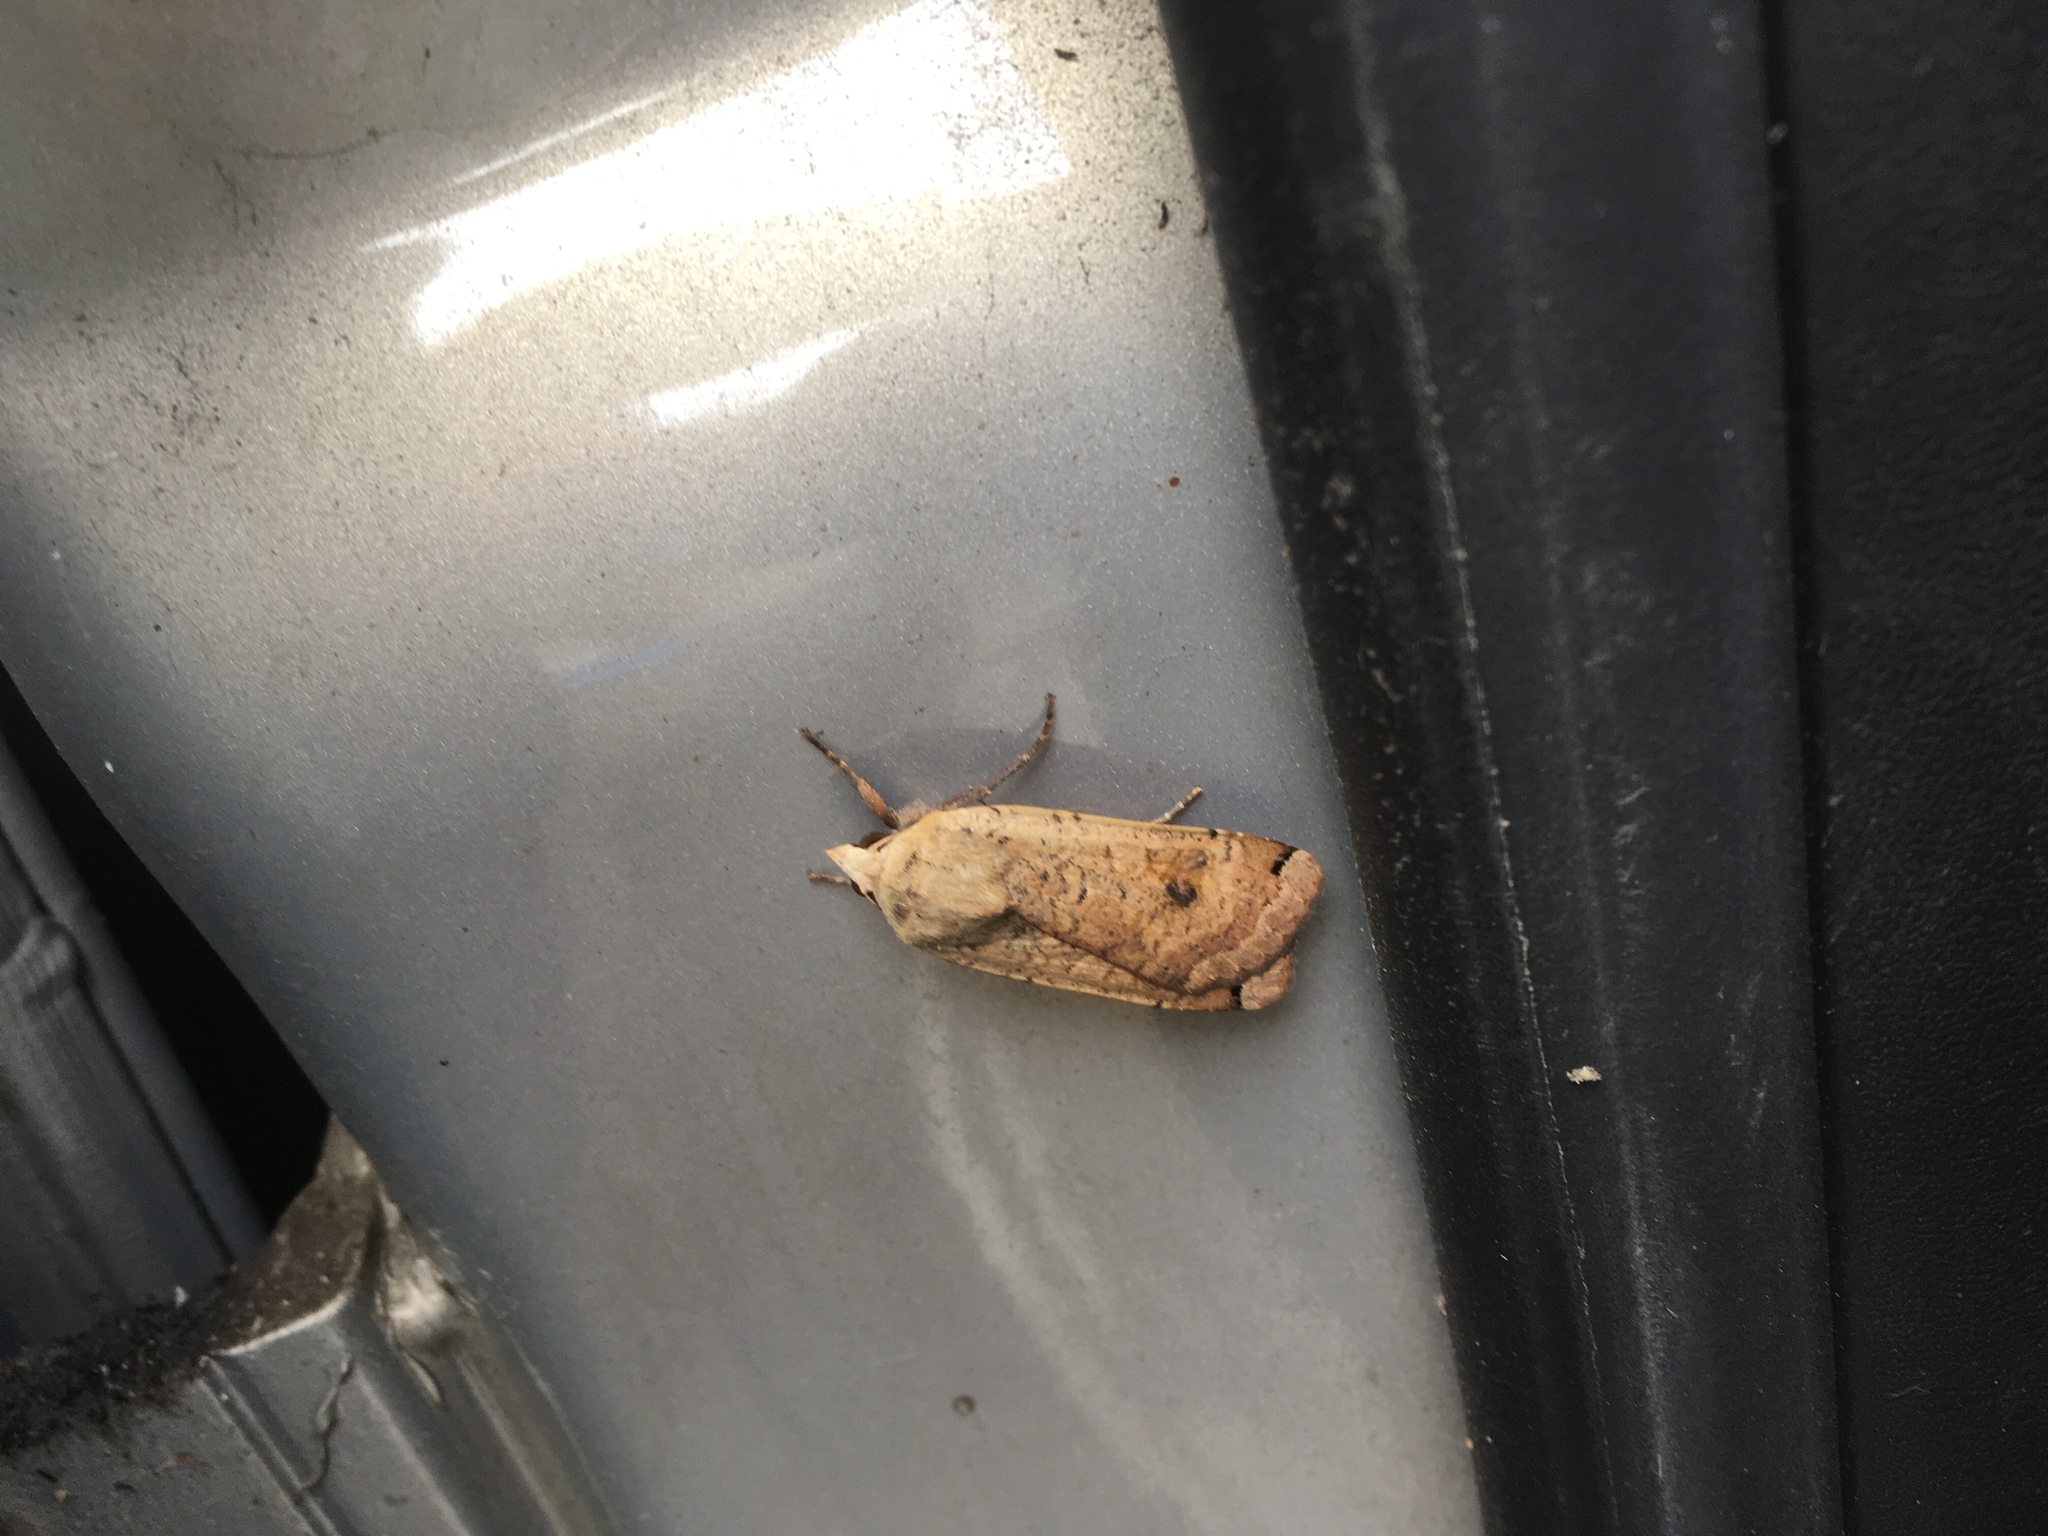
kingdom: Animalia
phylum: Arthropoda
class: Insecta
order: Lepidoptera
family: Noctuidae
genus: Noctua
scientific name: Noctua pronuba
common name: Large yellow underwing
